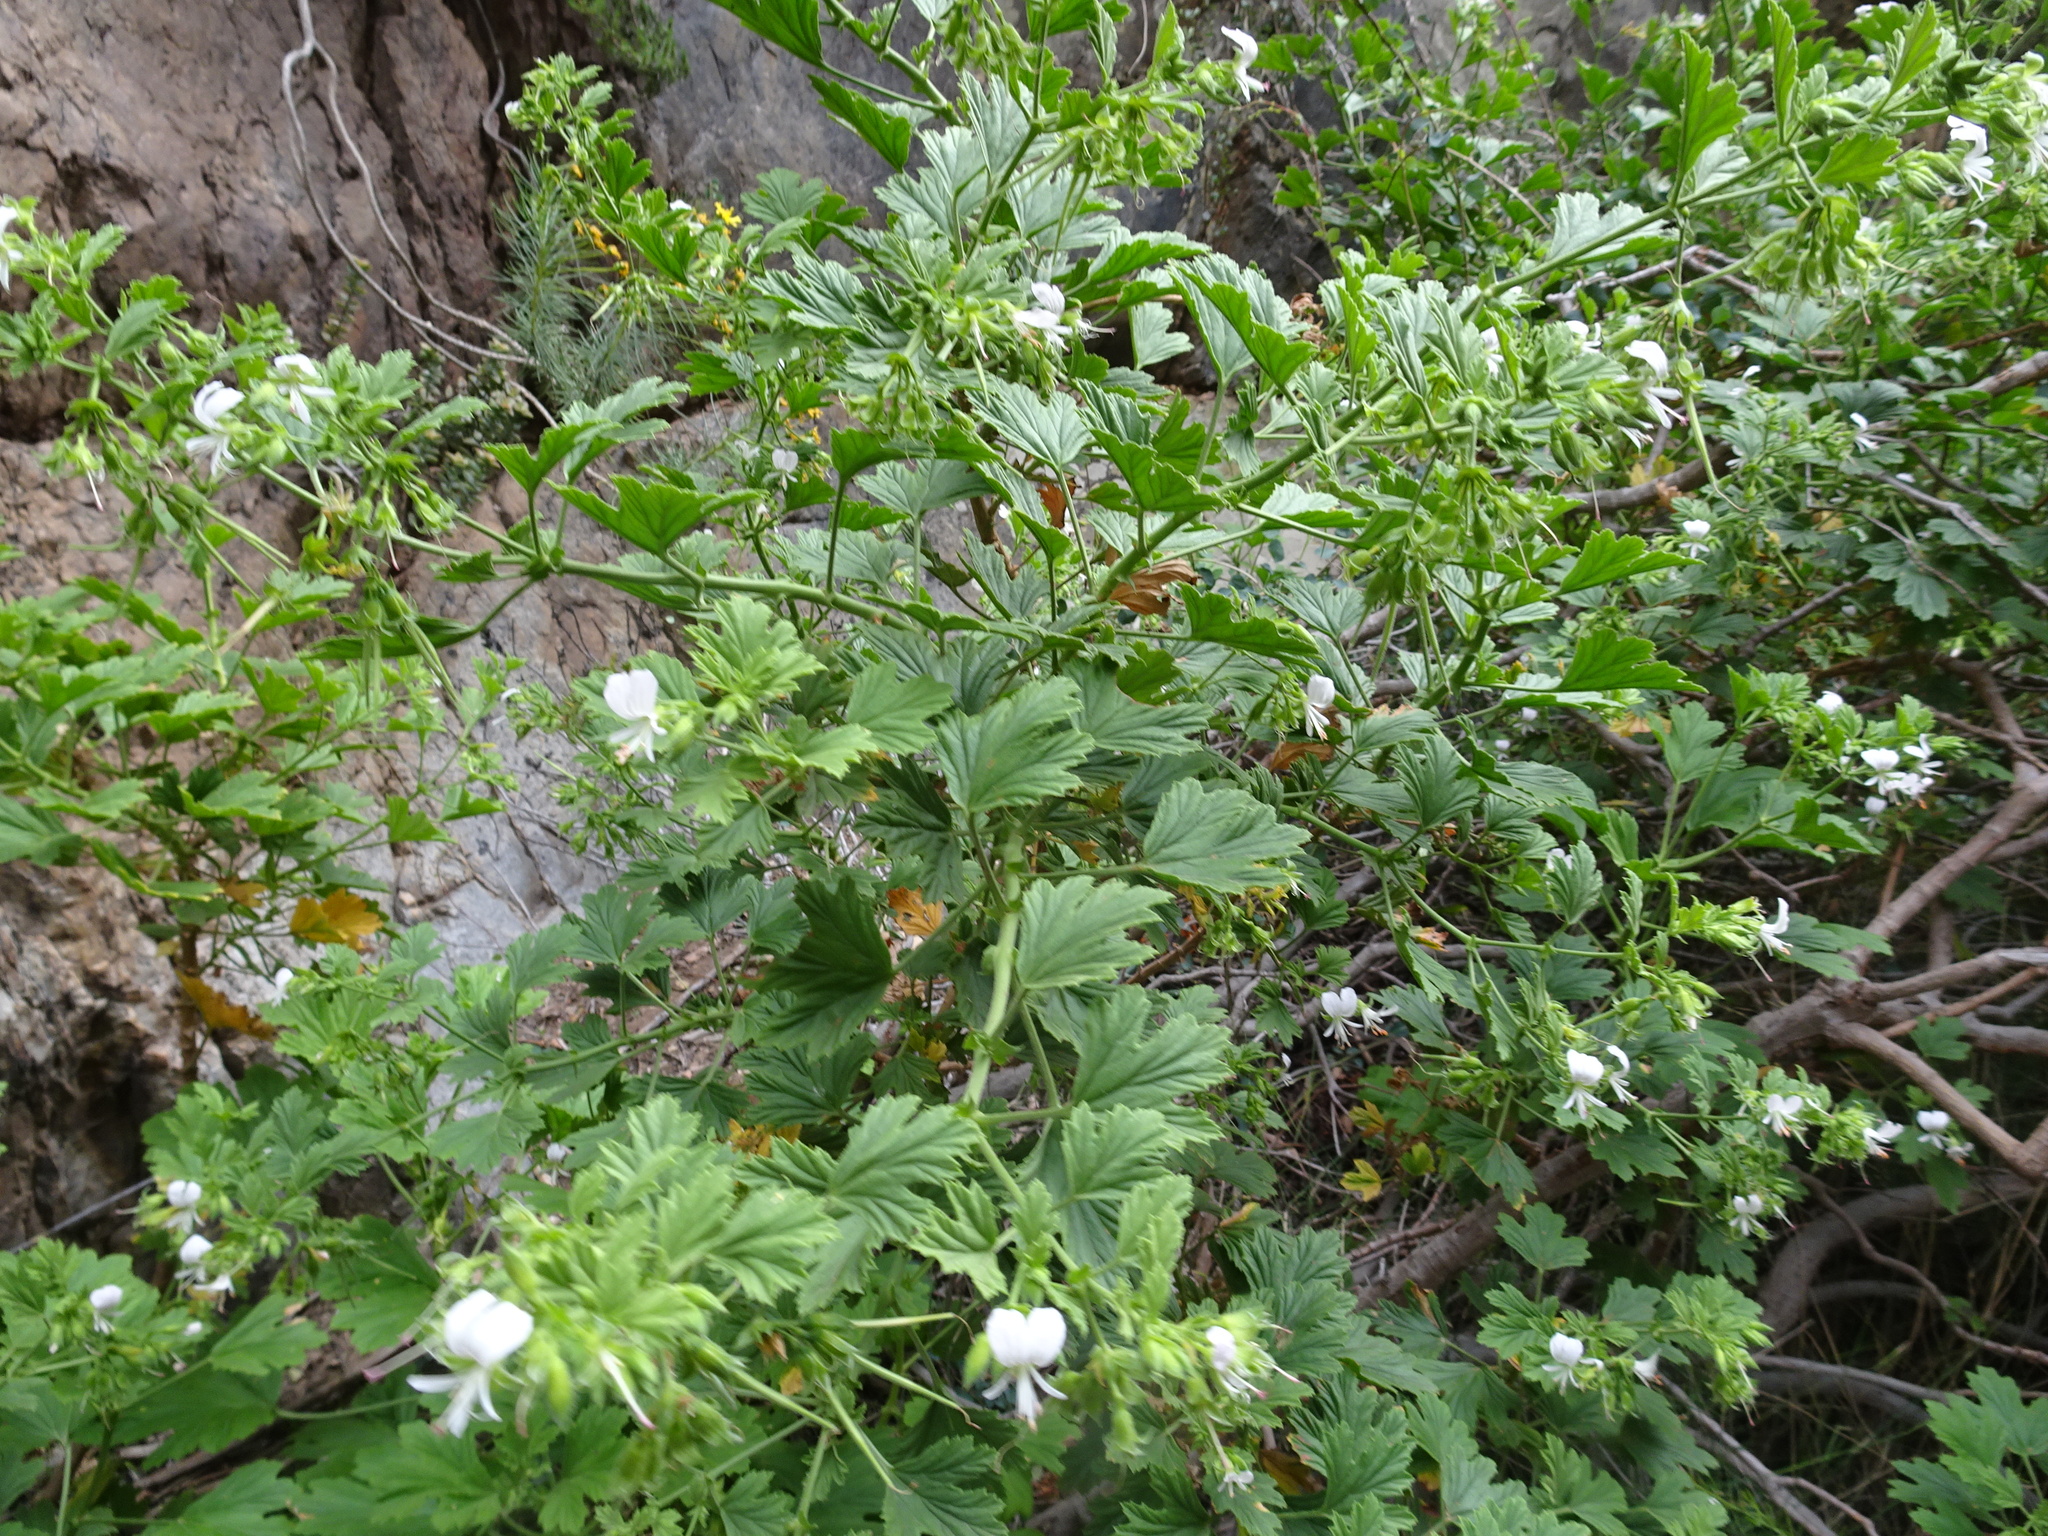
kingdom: Plantae
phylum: Tracheophyta
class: Magnoliopsida
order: Geraniales
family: Geraniaceae
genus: Pelargonium
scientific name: Pelargonium ribifolium
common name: Currant-leaf pelargonium
